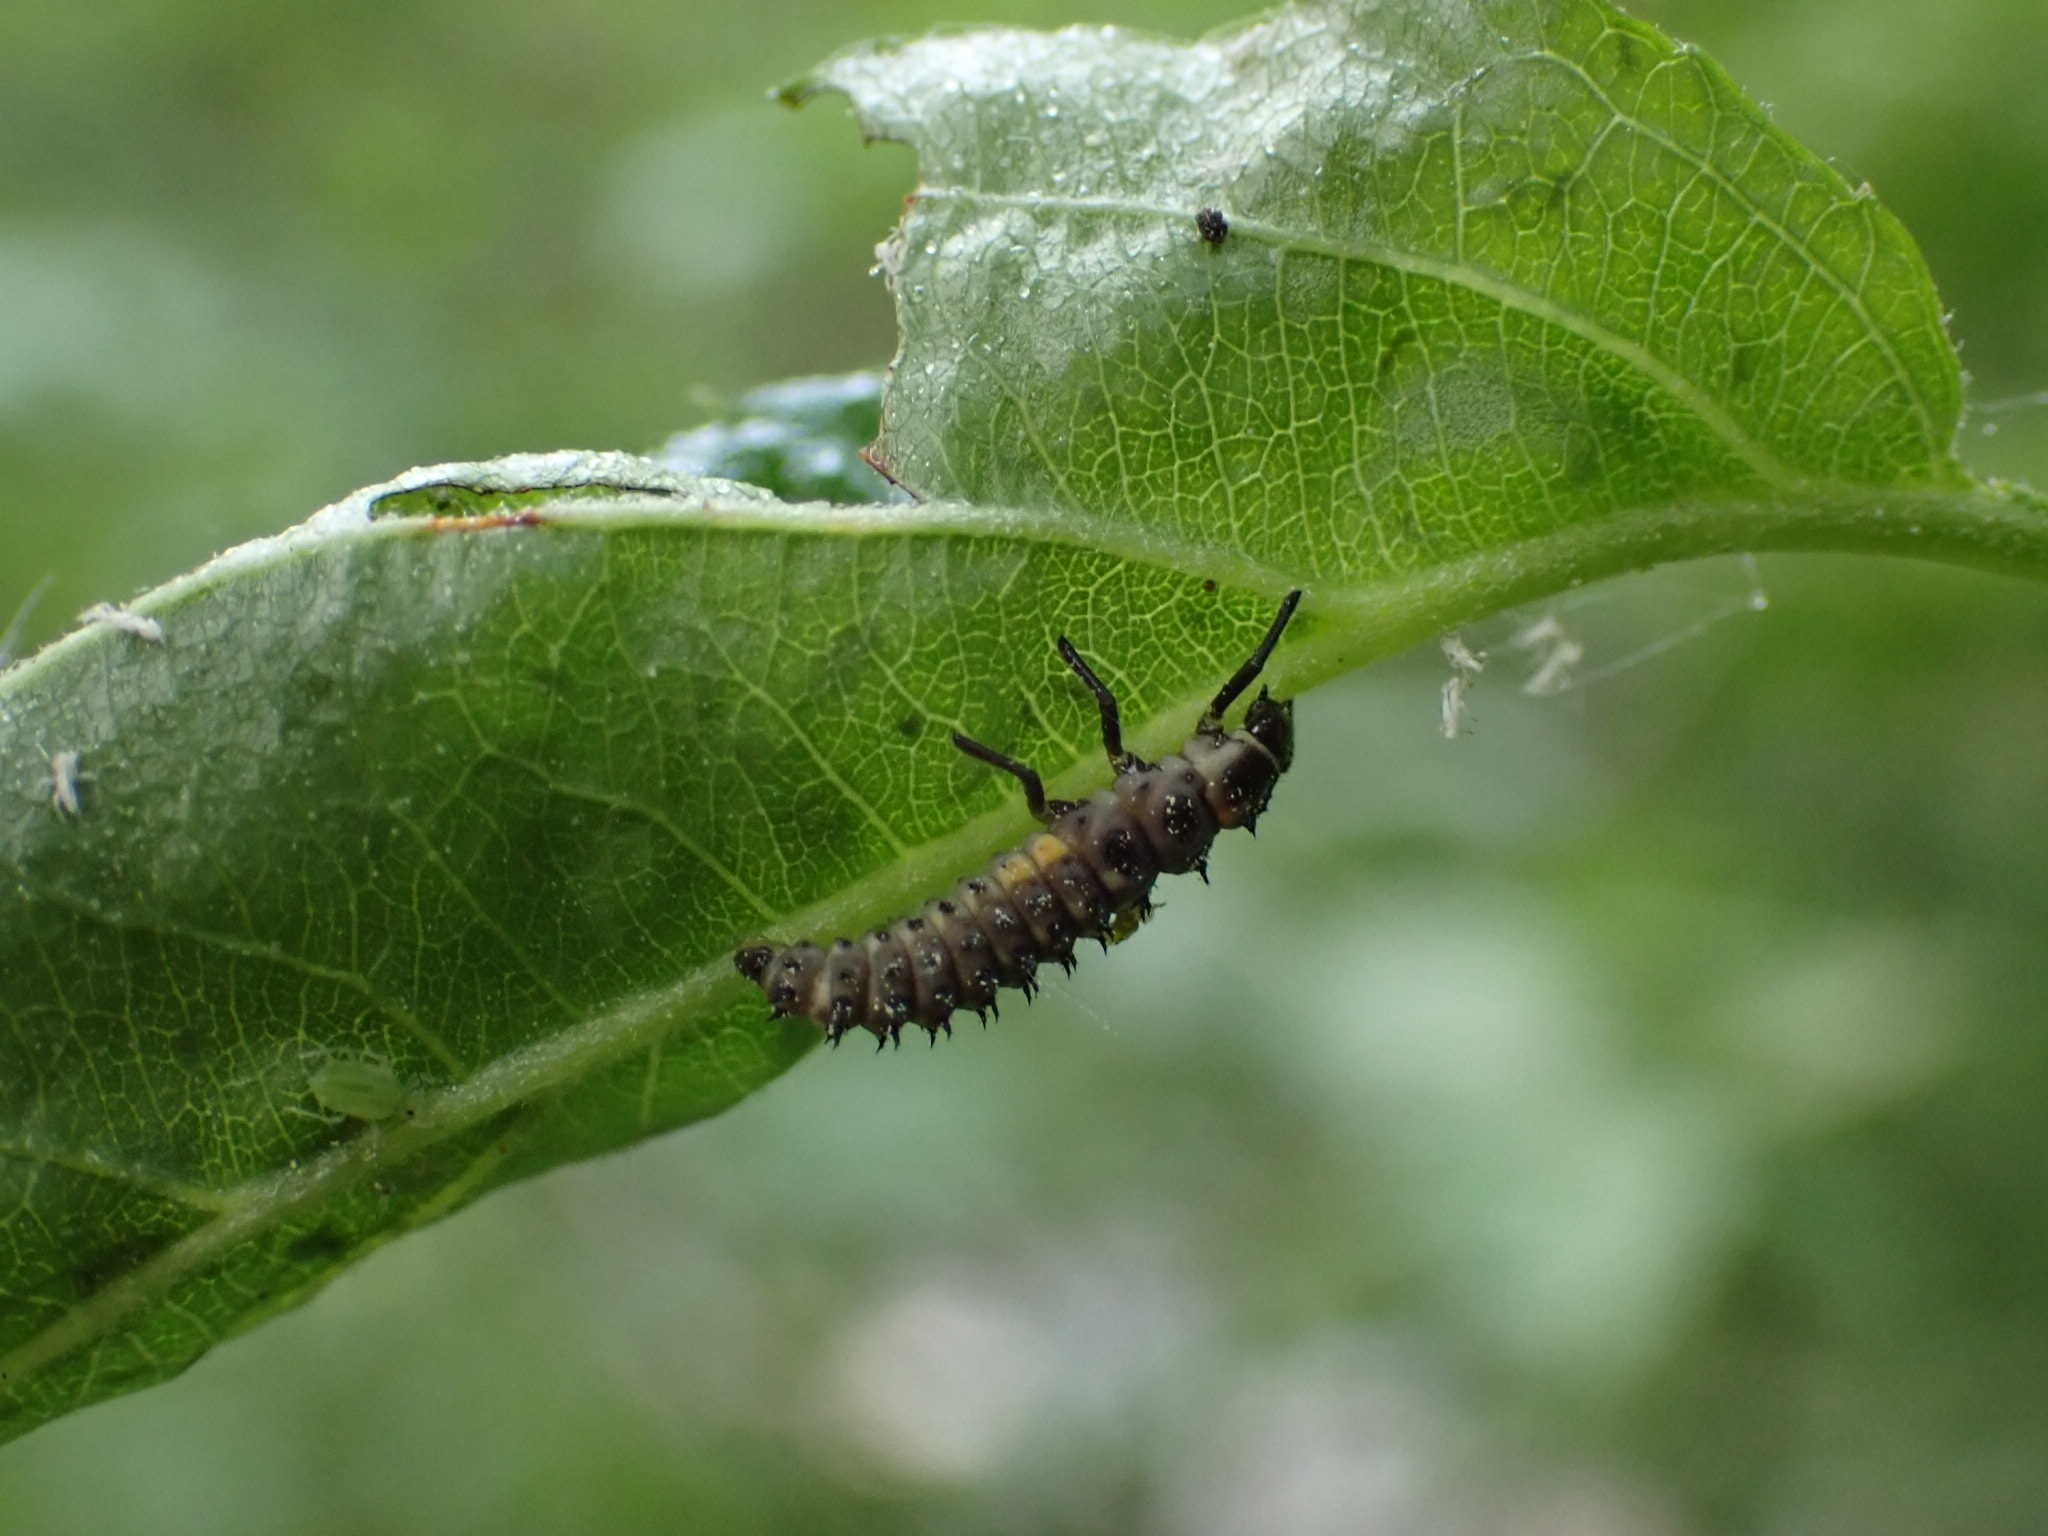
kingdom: Animalia
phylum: Arthropoda
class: Insecta
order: Coleoptera
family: Coccinellidae
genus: Anatis
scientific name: Anatis ocellata
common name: Eyed ladybird
